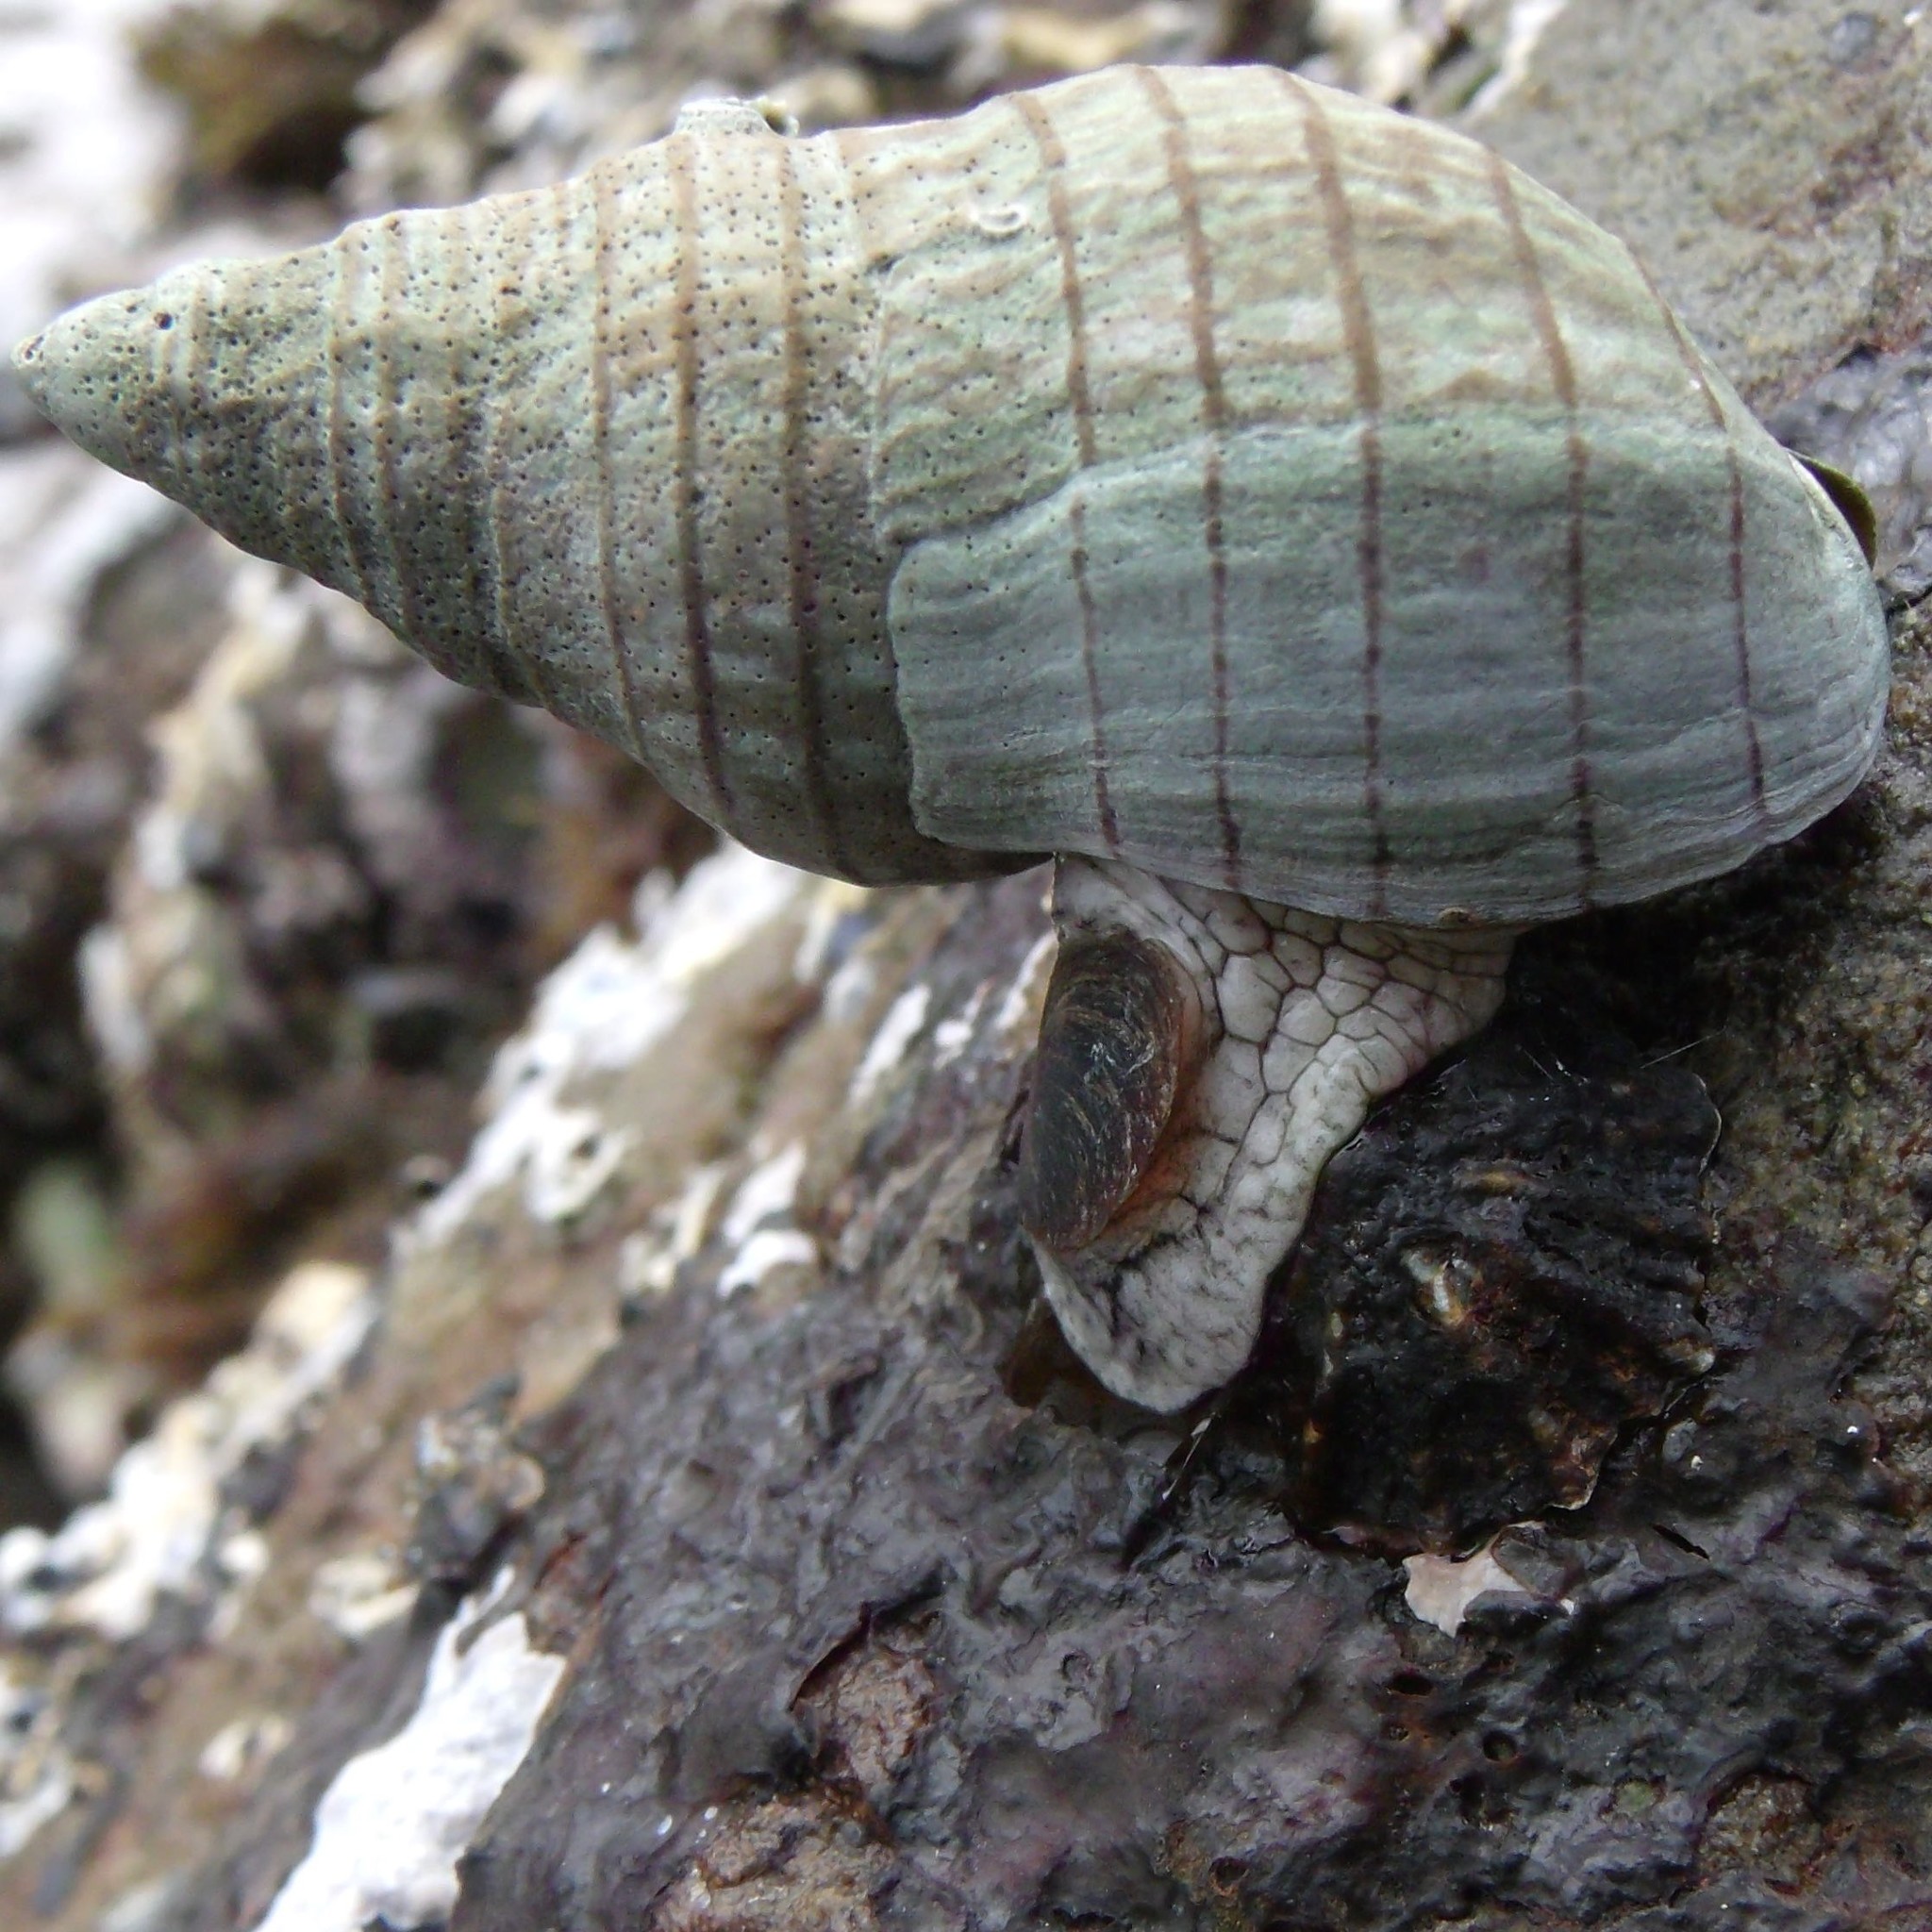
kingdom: Animalia
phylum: Mollusca
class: Gastropoda
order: Neogastropoda
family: Cominellidae
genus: Cominella
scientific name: Cominella virgata
